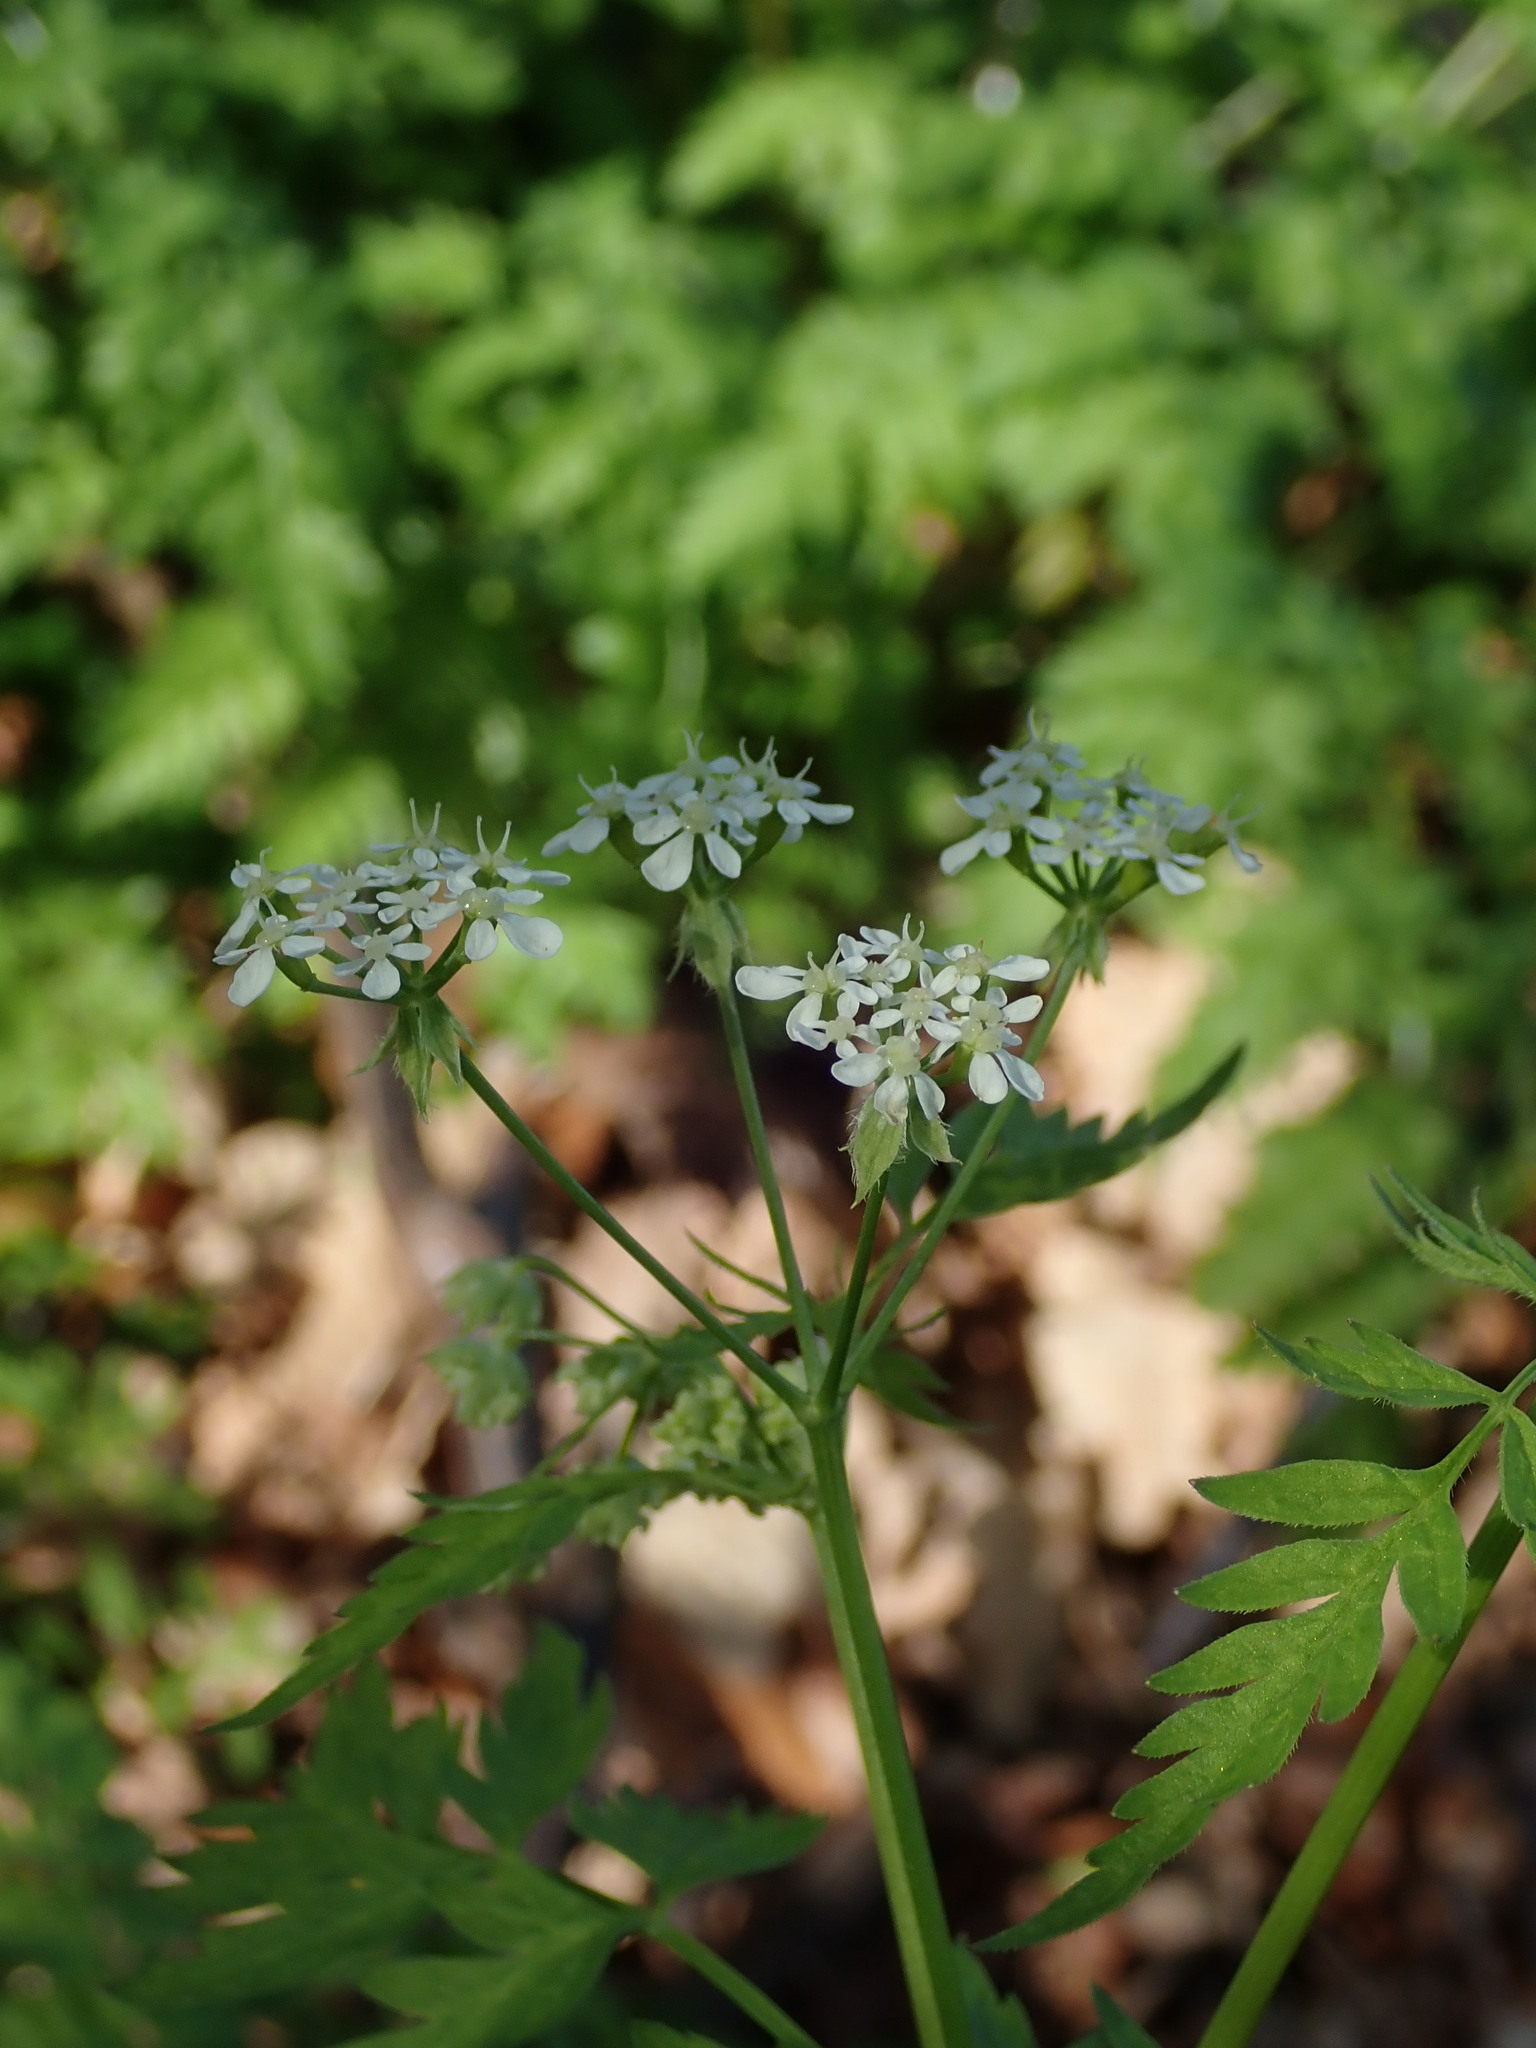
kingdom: Plantae
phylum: Tracheophyta
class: Magnoliopsida
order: Apiales
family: Apiaceae
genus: Anthriscus
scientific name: Anthriscus sylvestris
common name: Cow parsley
